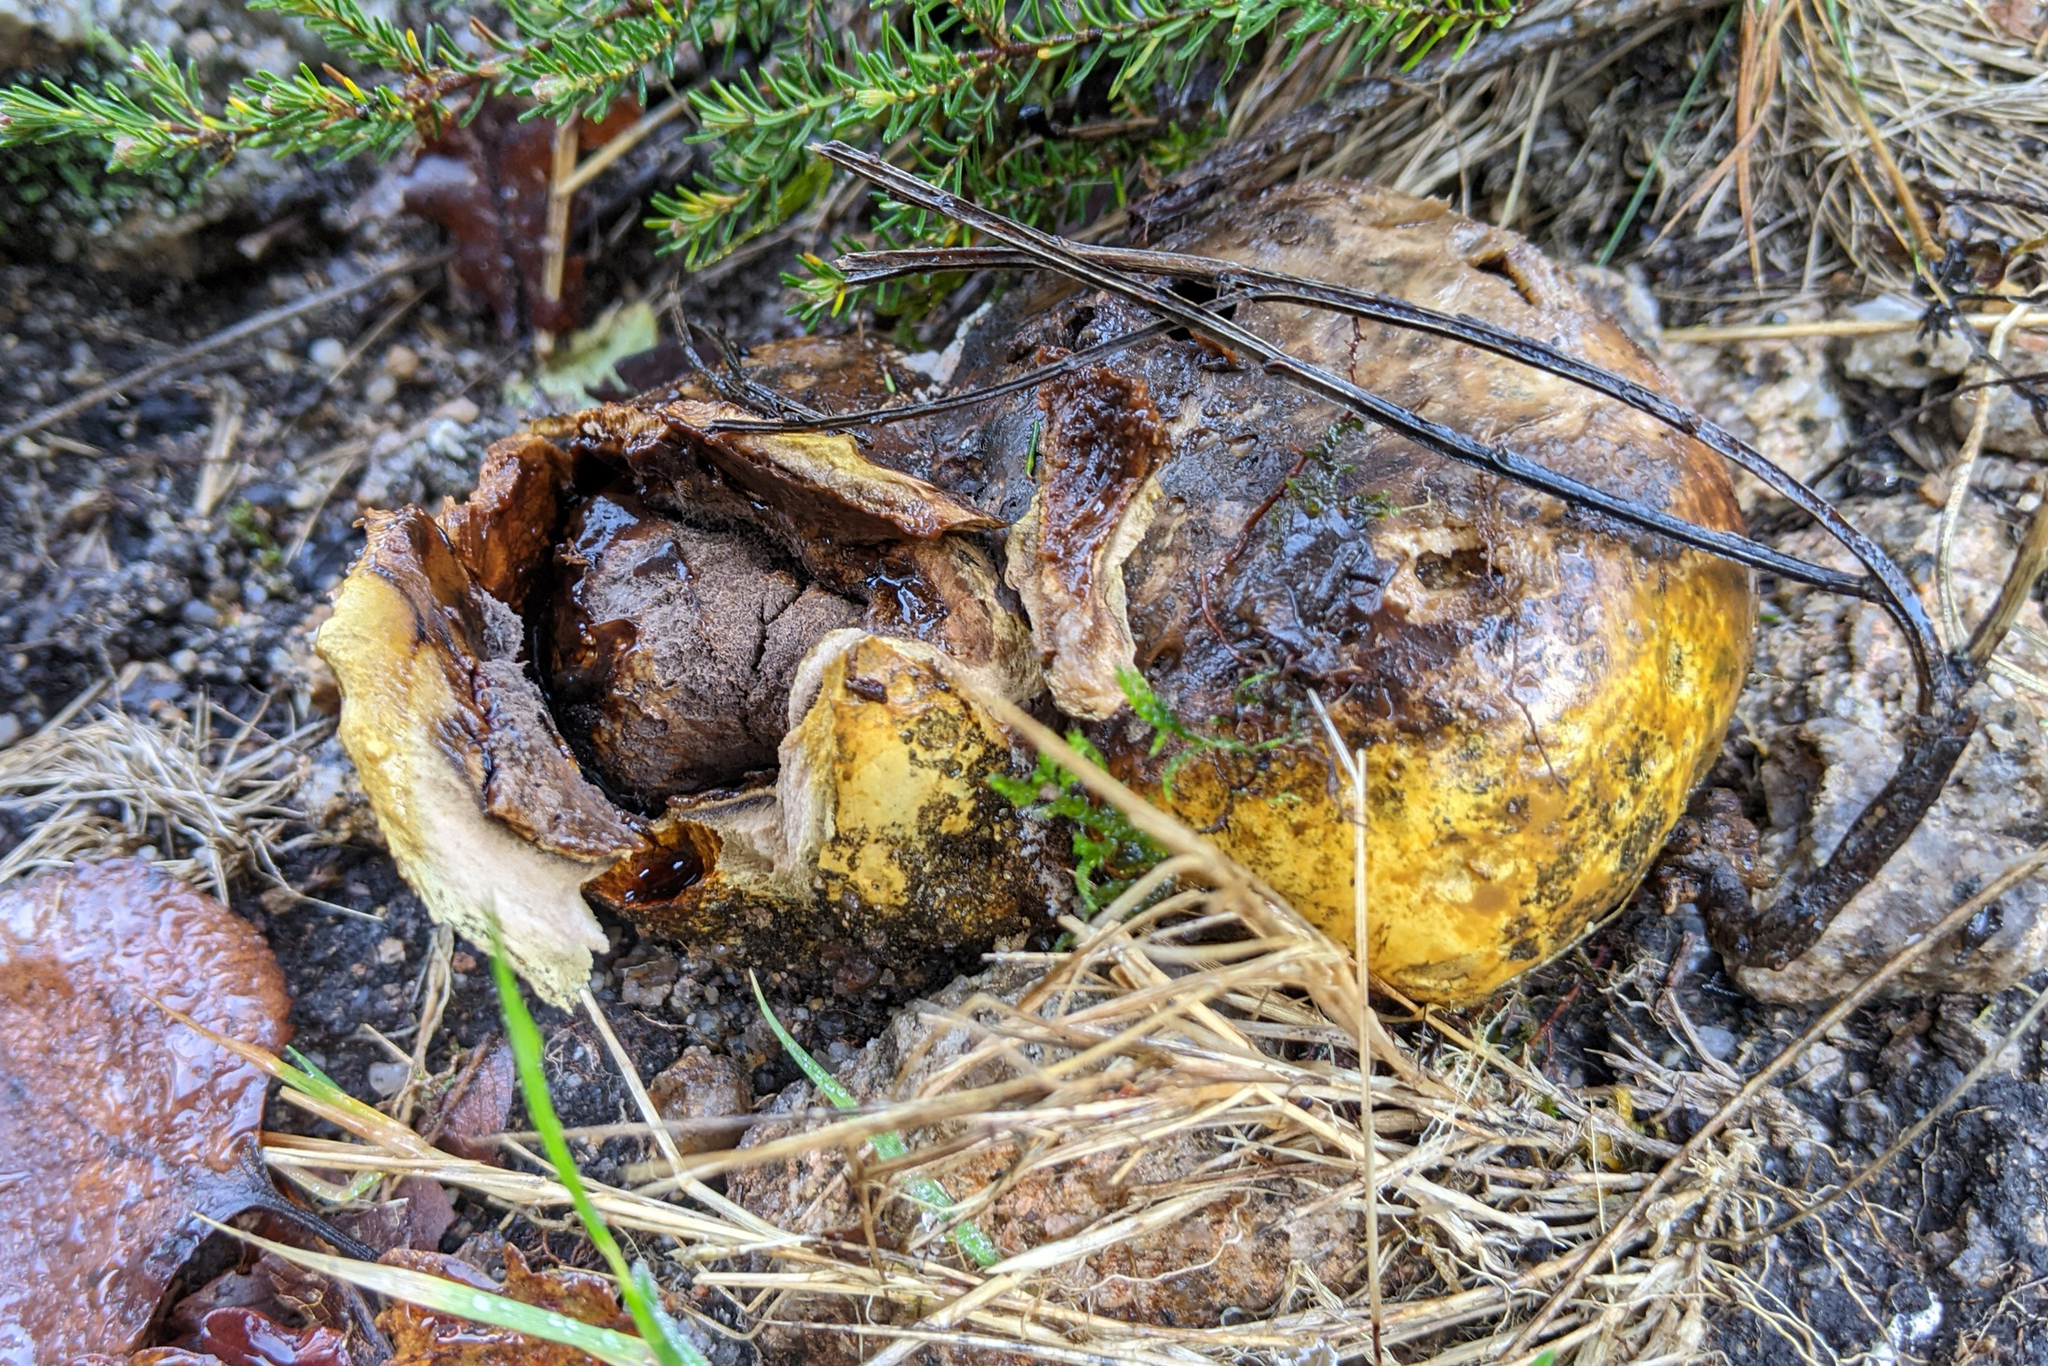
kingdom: Fungi
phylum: Basidiomycota
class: Agaricomycetes
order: Boletales
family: Sclerodermataceae
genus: Scleroderma
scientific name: Scleroderma polyrhizum
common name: Many-rooted earthball
